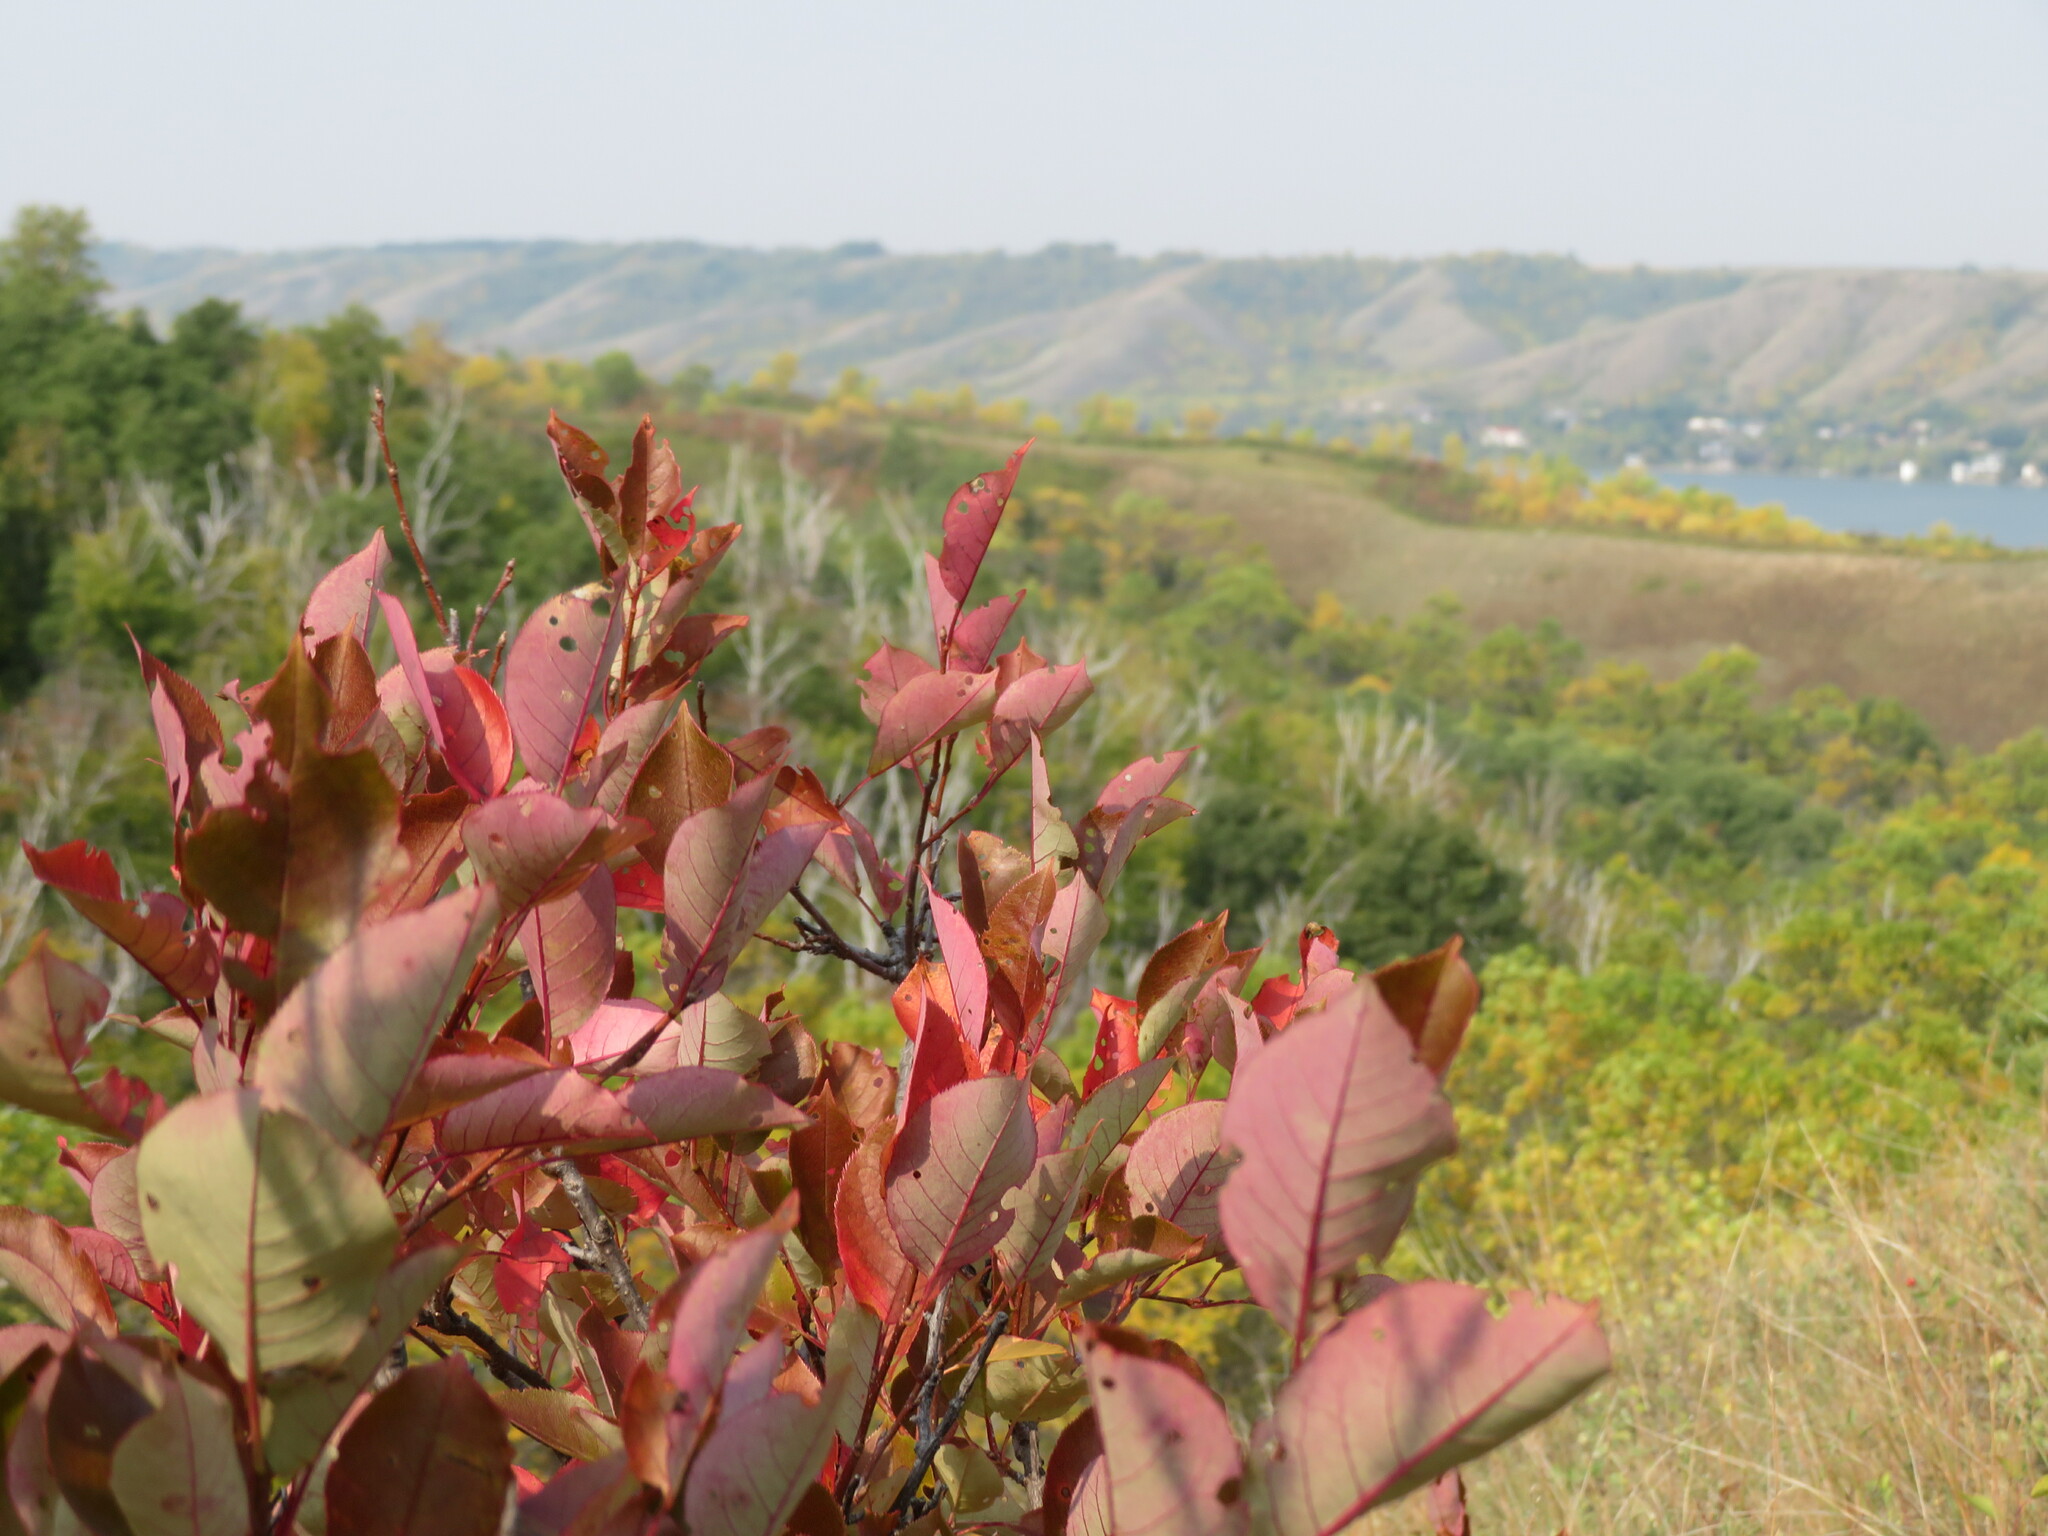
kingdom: Plantae
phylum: Tracheophyta
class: Magnoliopsida
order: Rosales
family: Rosaceae
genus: Prunus
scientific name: Prunus virginiana
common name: Chokecherry
